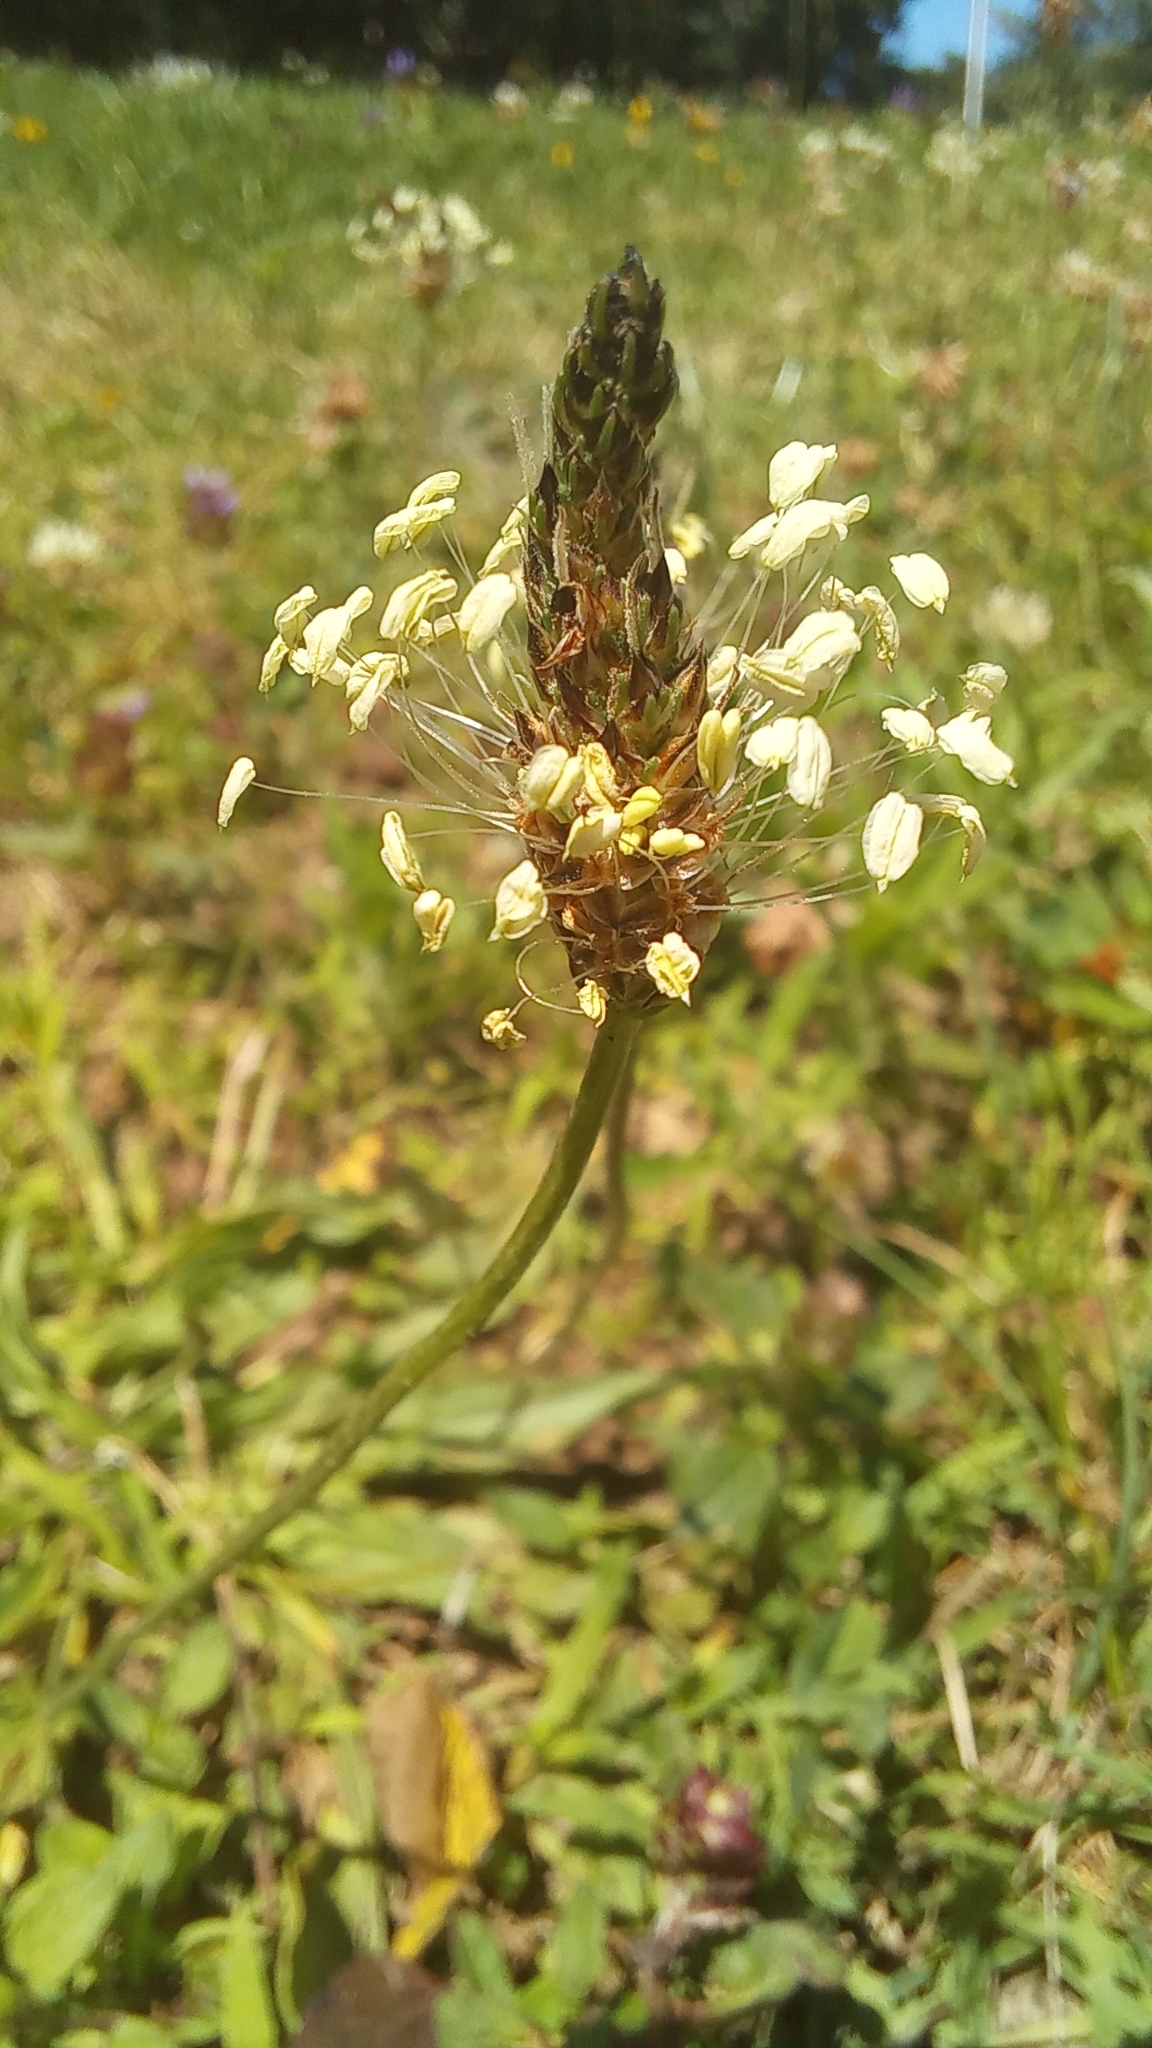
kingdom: Plantae
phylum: Tracheophyta
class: Magnoliopsida
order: Lamiales
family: Plantaginaceae
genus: Plantago
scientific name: Plantago lanceolata
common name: Ribwort plantain
